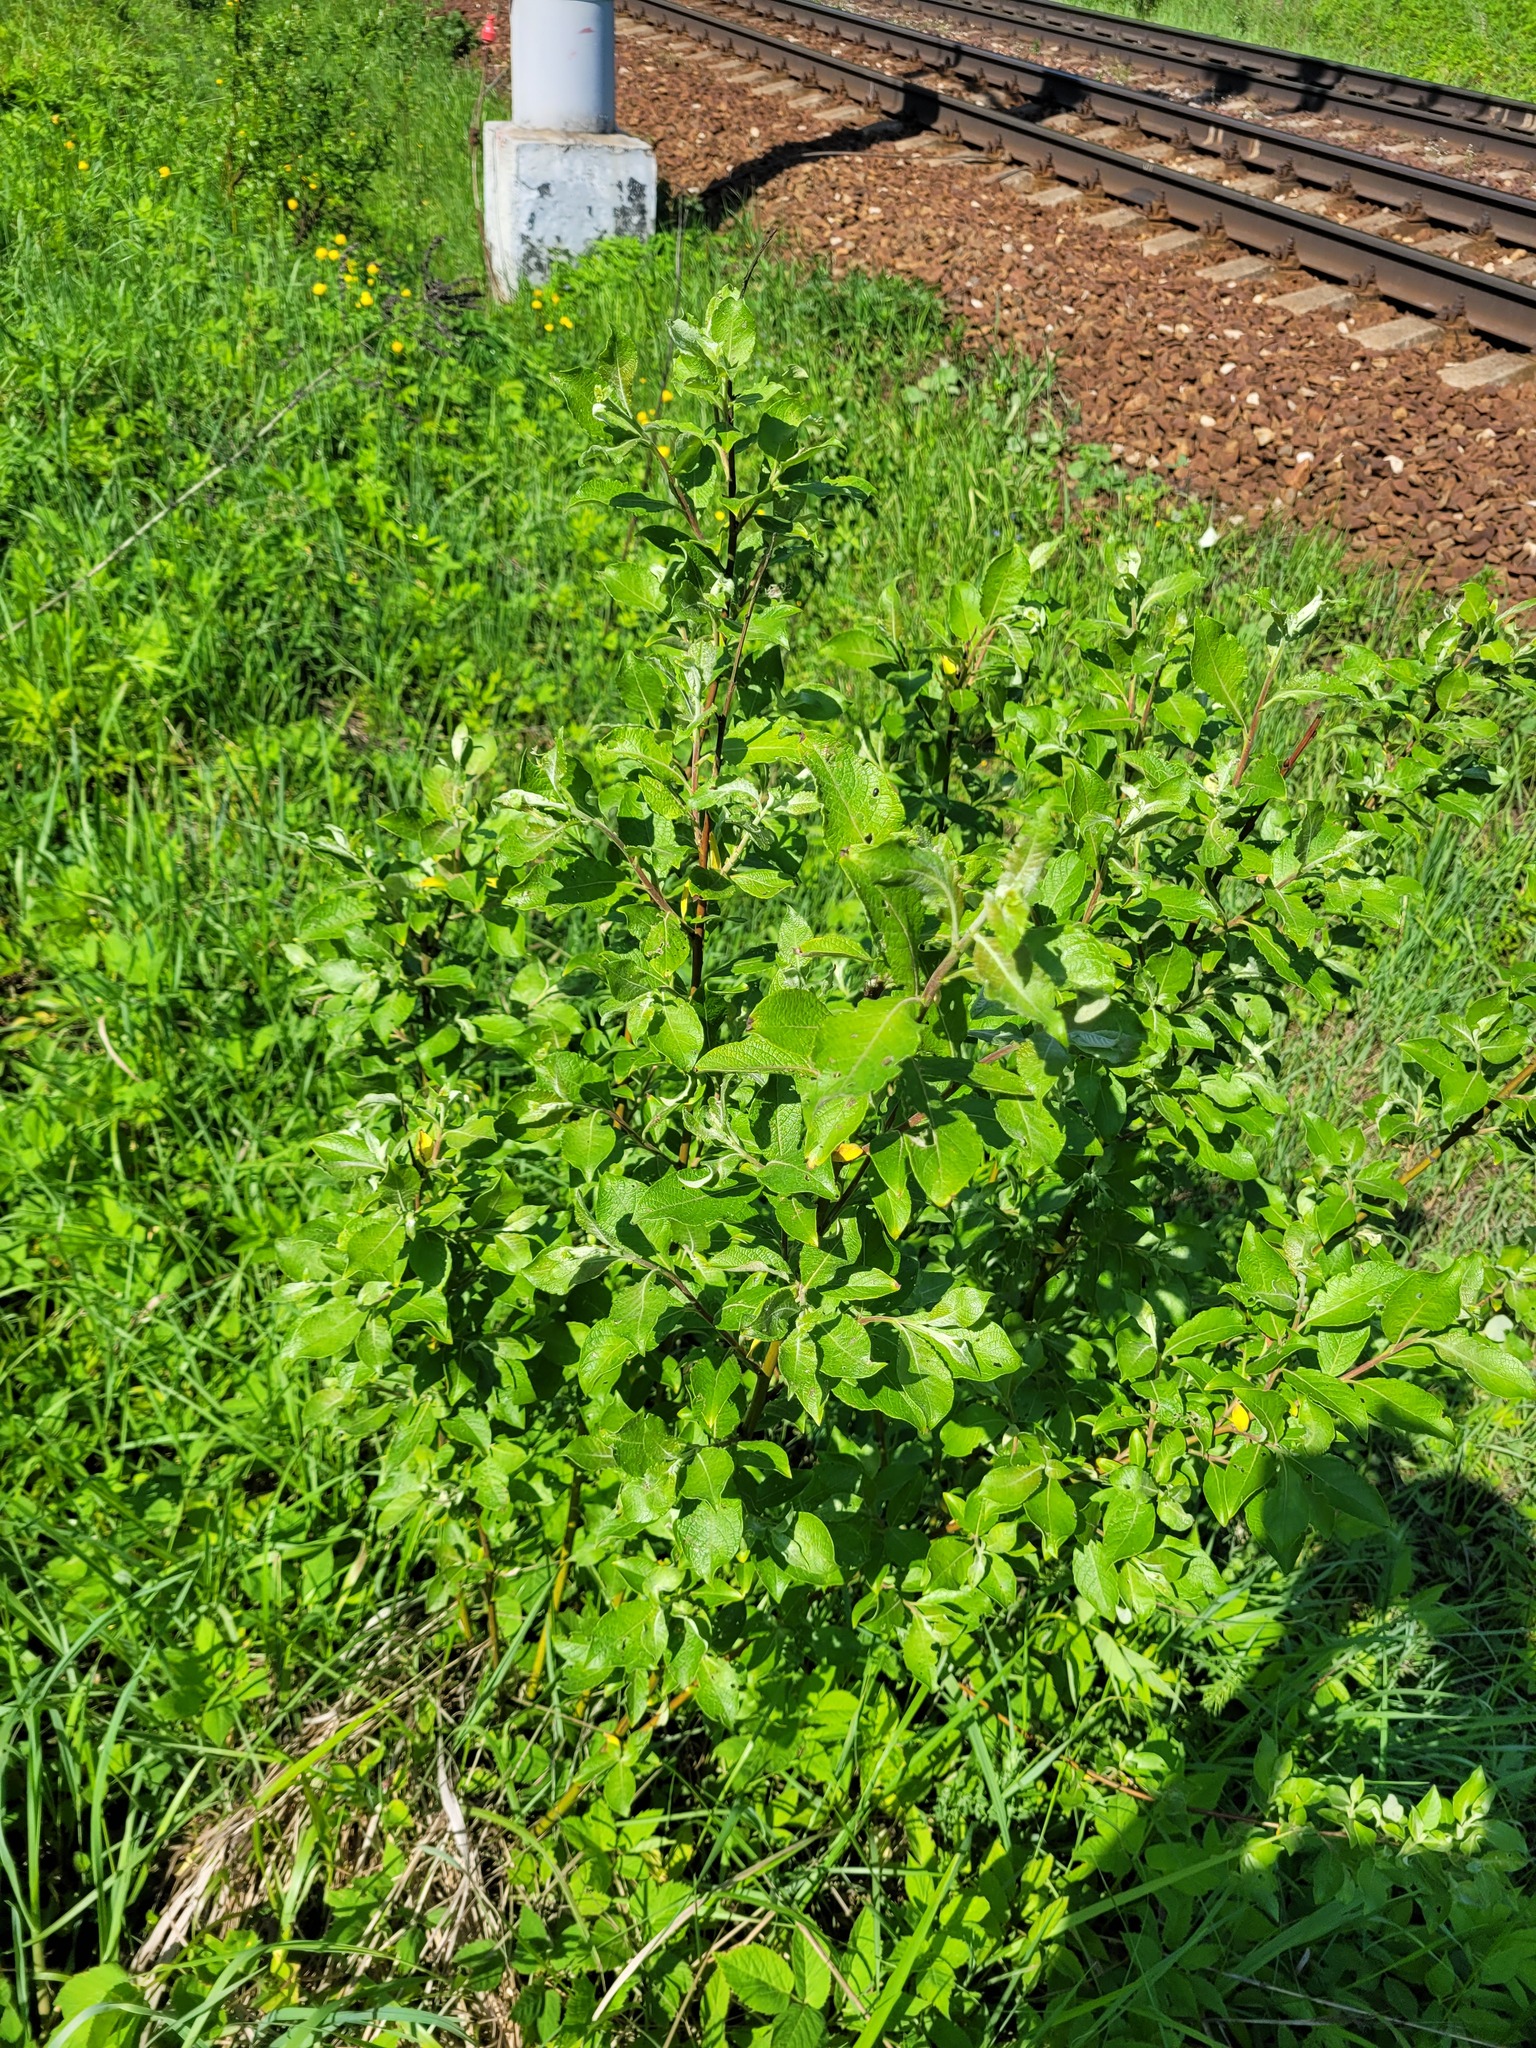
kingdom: Plantae
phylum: Tracheophyta
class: Magnoliopsida
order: Malpighiales
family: Salicaceae
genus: Salix
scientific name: Salix caprea
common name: Goat willow
